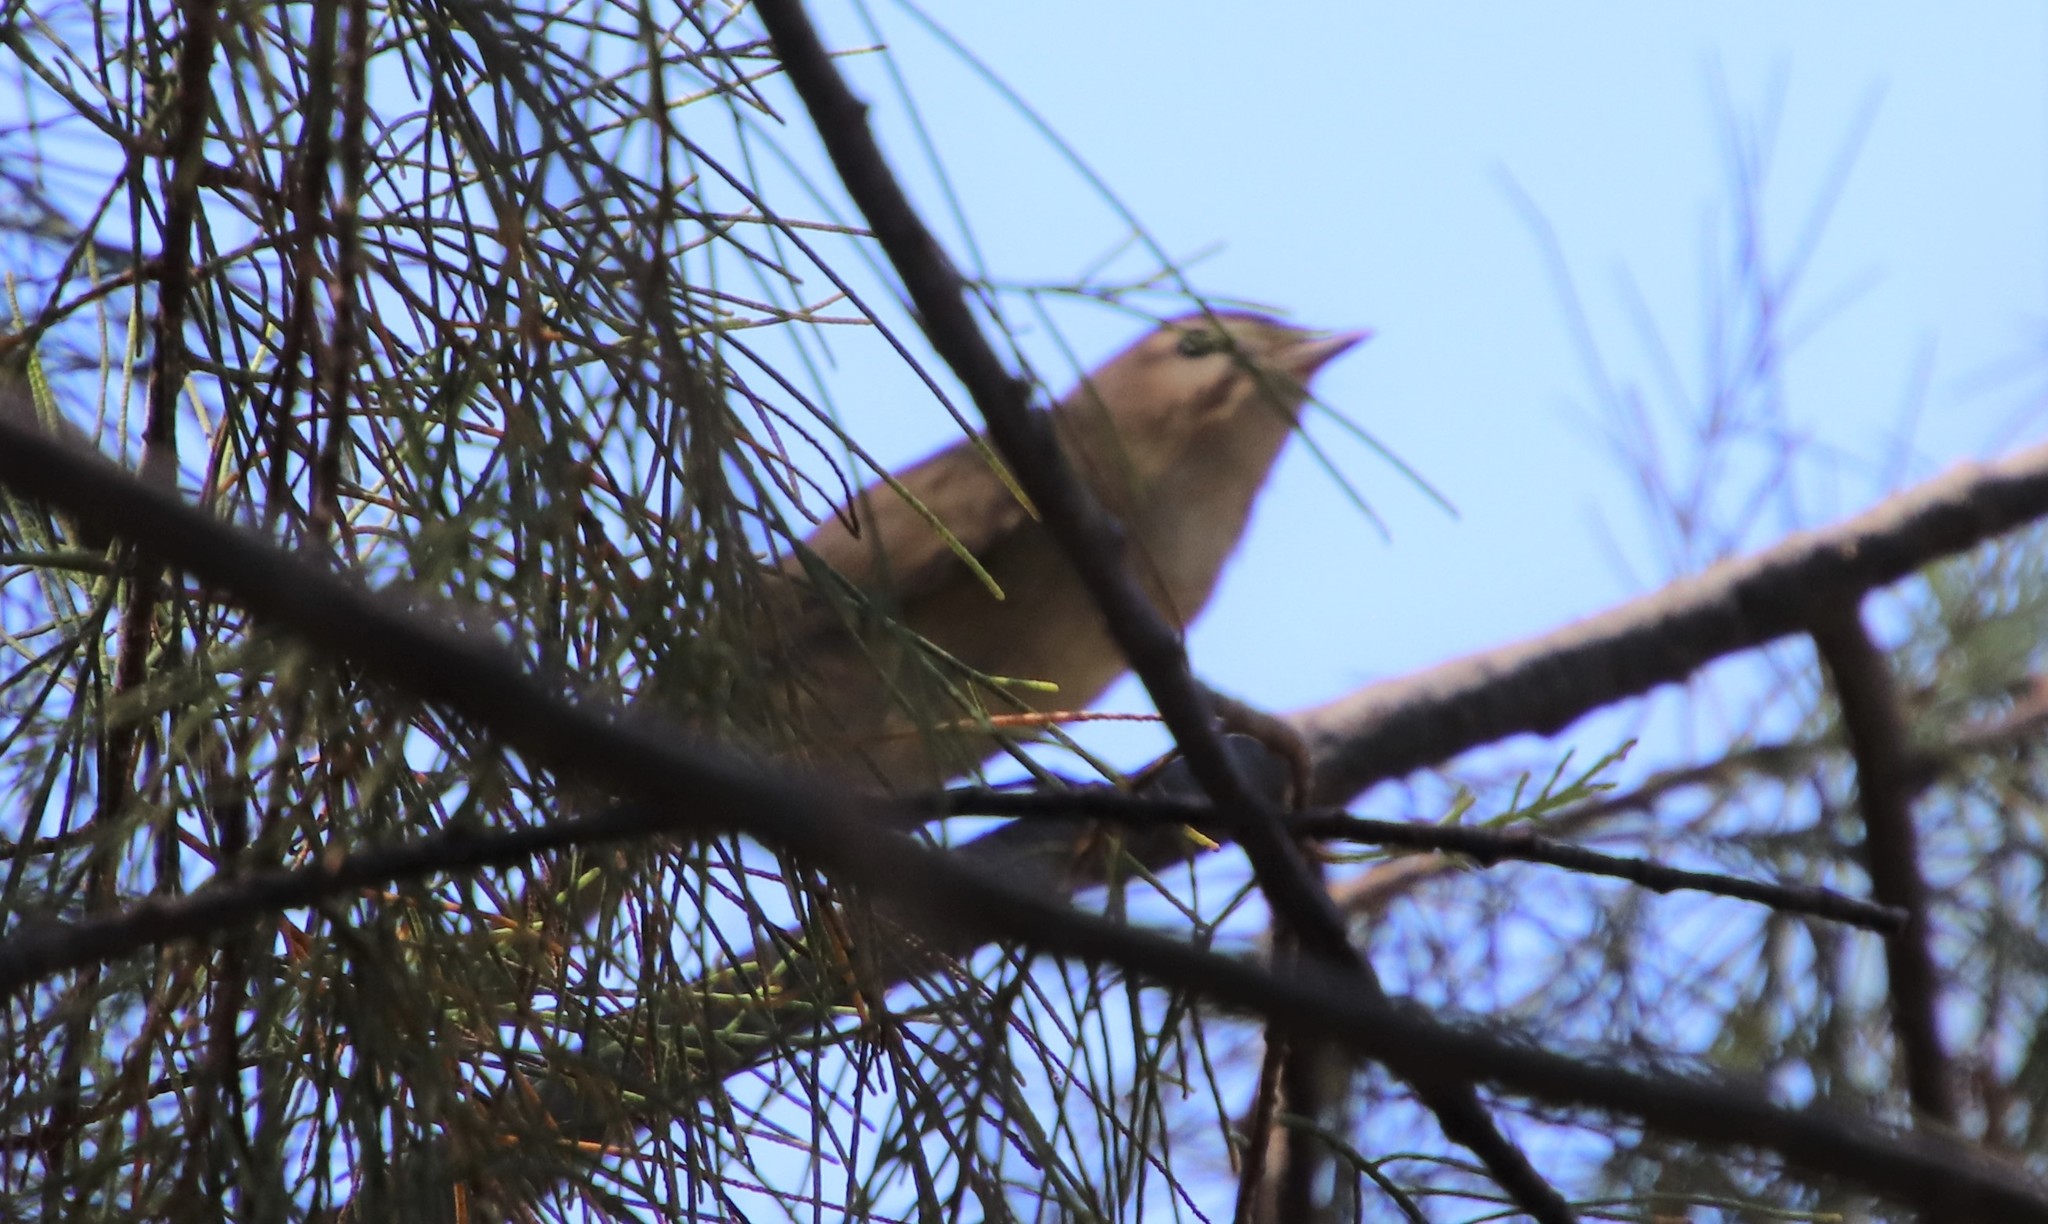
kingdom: Animalia
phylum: Chordata
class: Aves
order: Passeriformes
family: Vireonidae
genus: Vireo
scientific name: Vireo gilvus
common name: Warbling vireo
